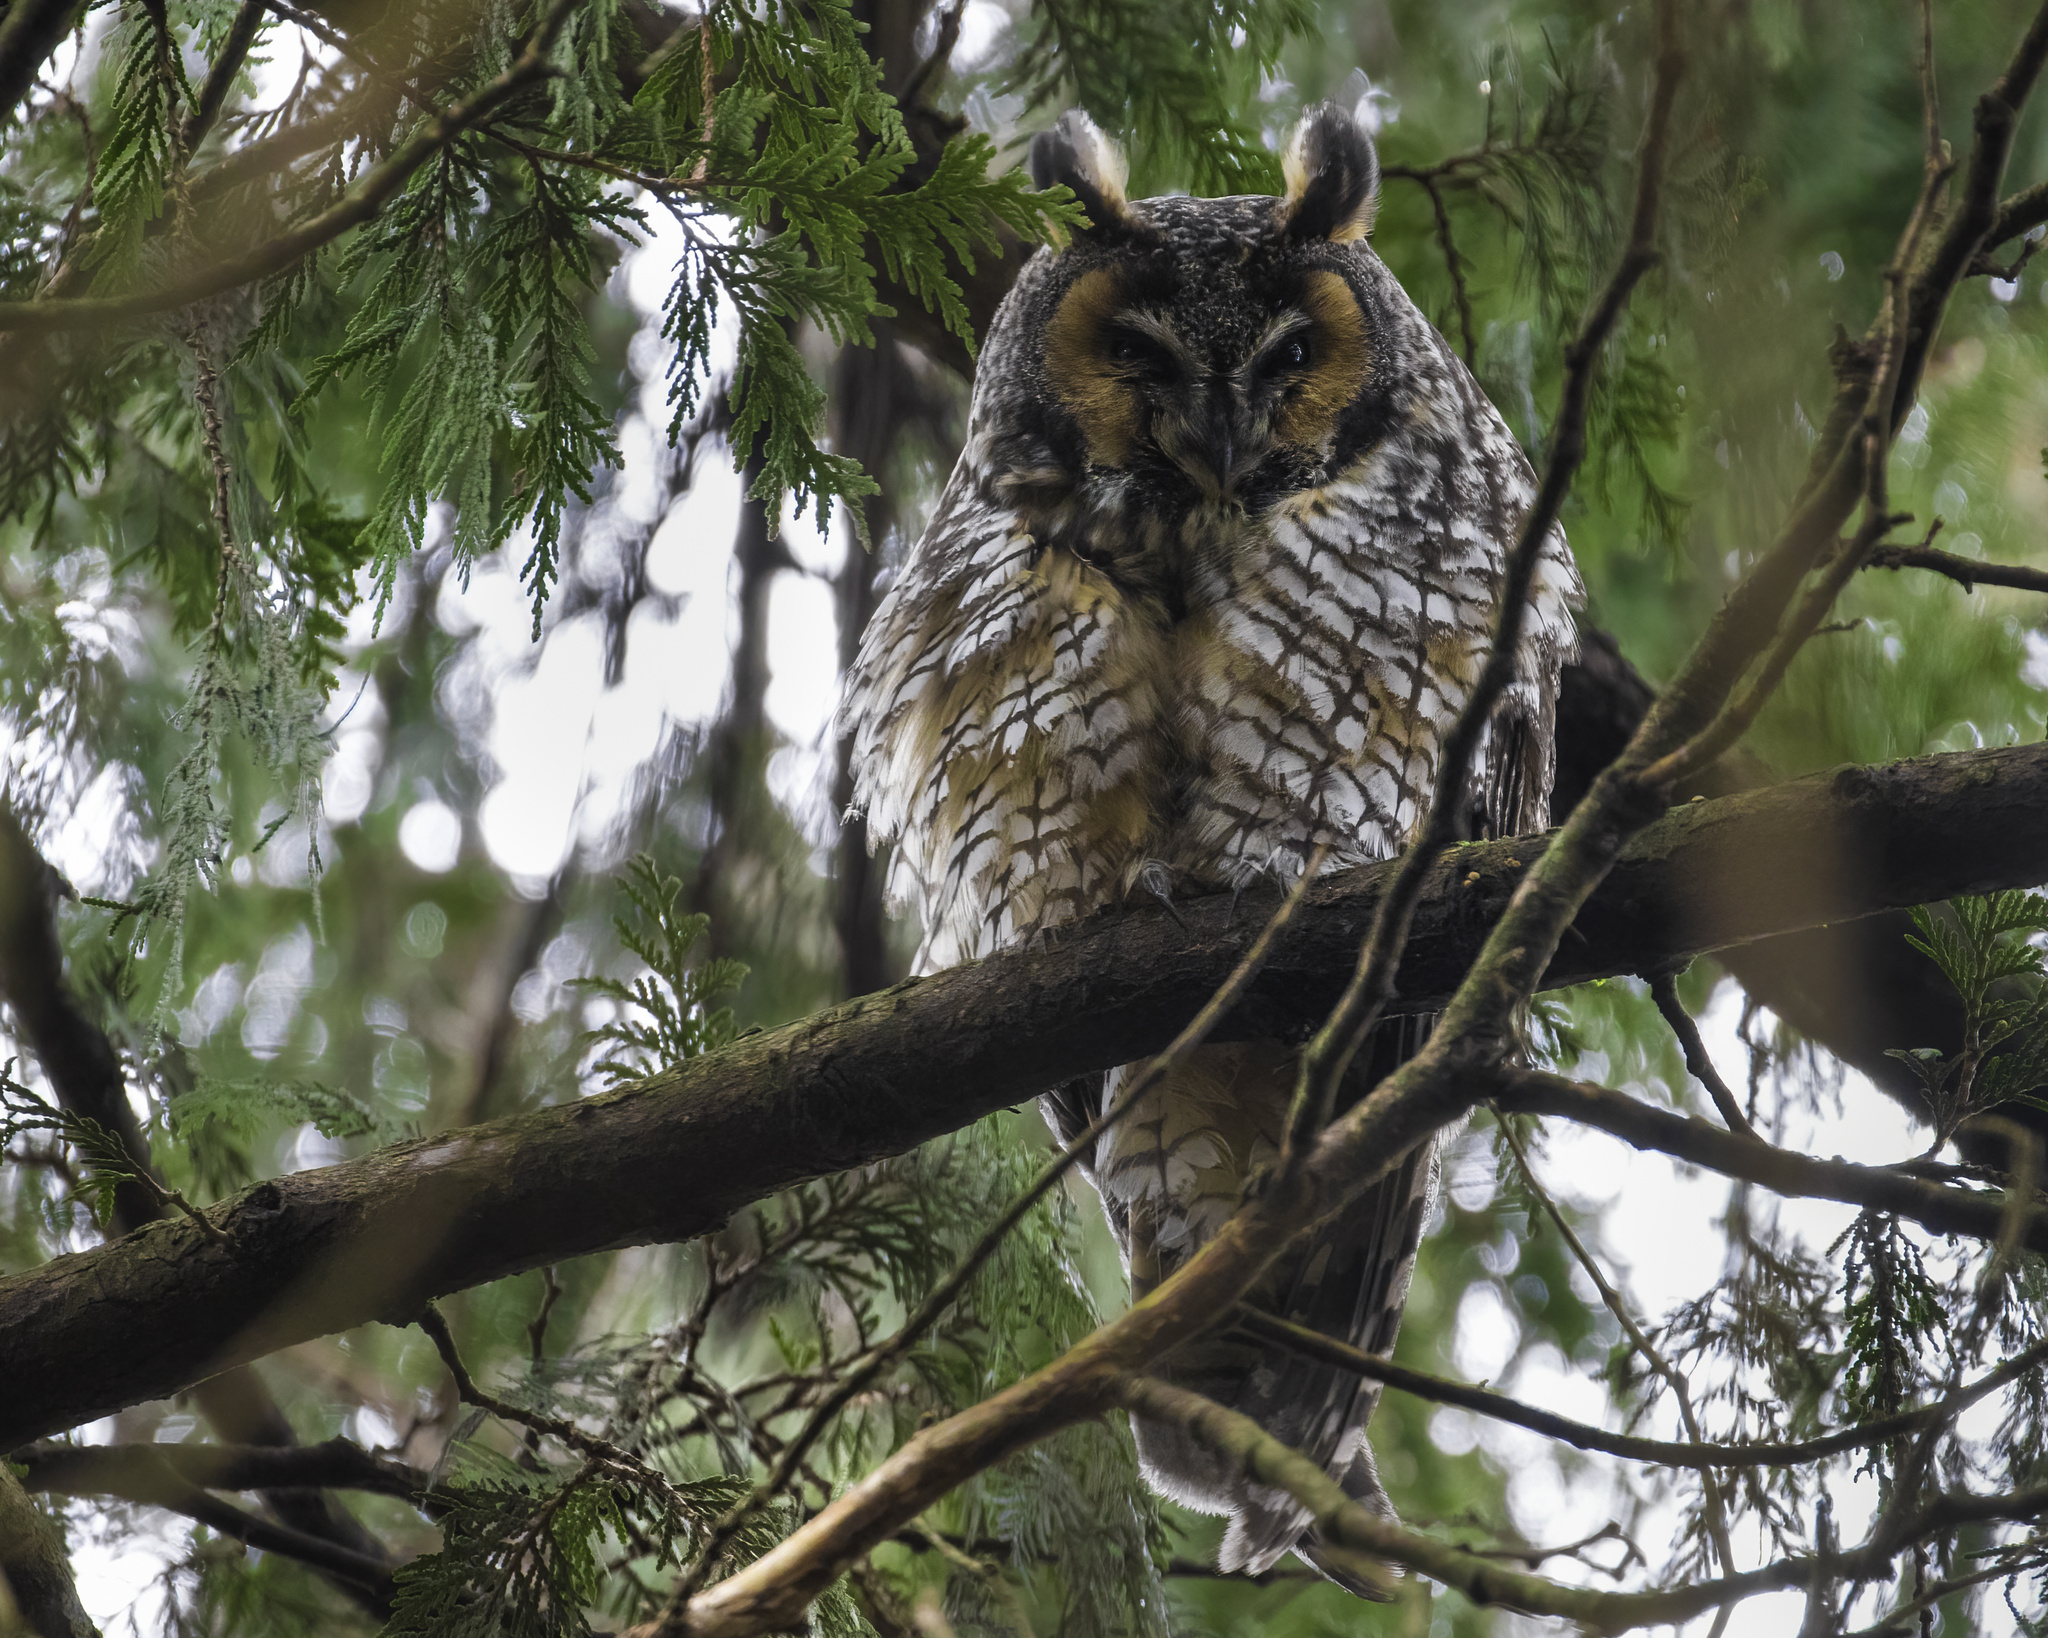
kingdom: Animalia
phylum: Chordata
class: Aves
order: Strigiformes
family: Strigidae
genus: Asio
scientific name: Asio otus
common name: Long-eared owl
